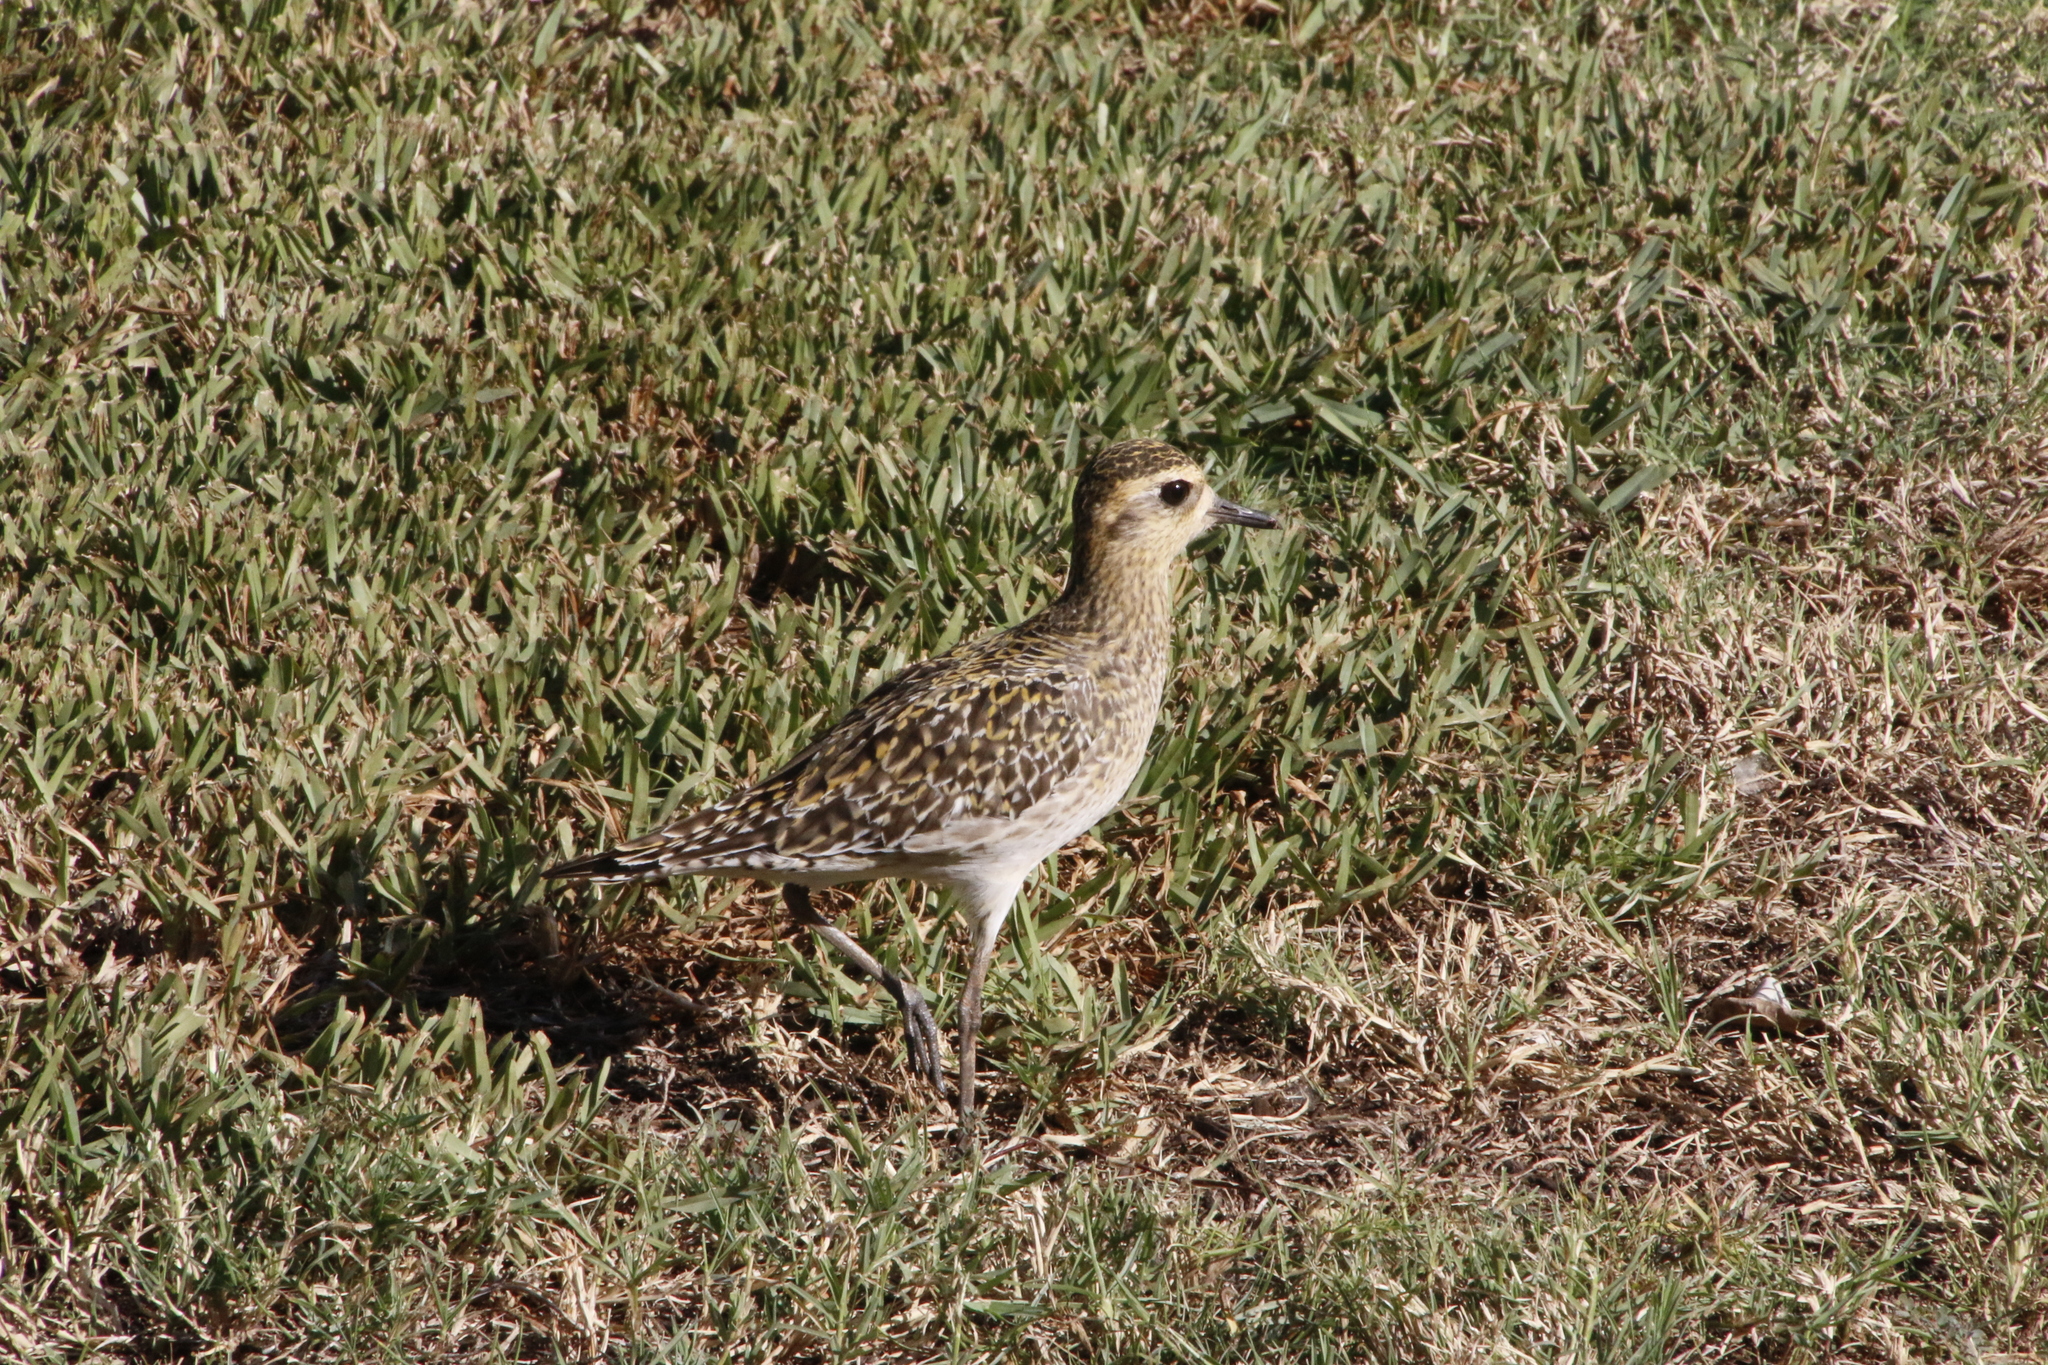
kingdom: Animalia
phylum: Chordata
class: Aves
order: Charadriiformes
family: Charadriidae
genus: Pluvialis
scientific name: Pluvialis fulva
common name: Pacific golden plover
